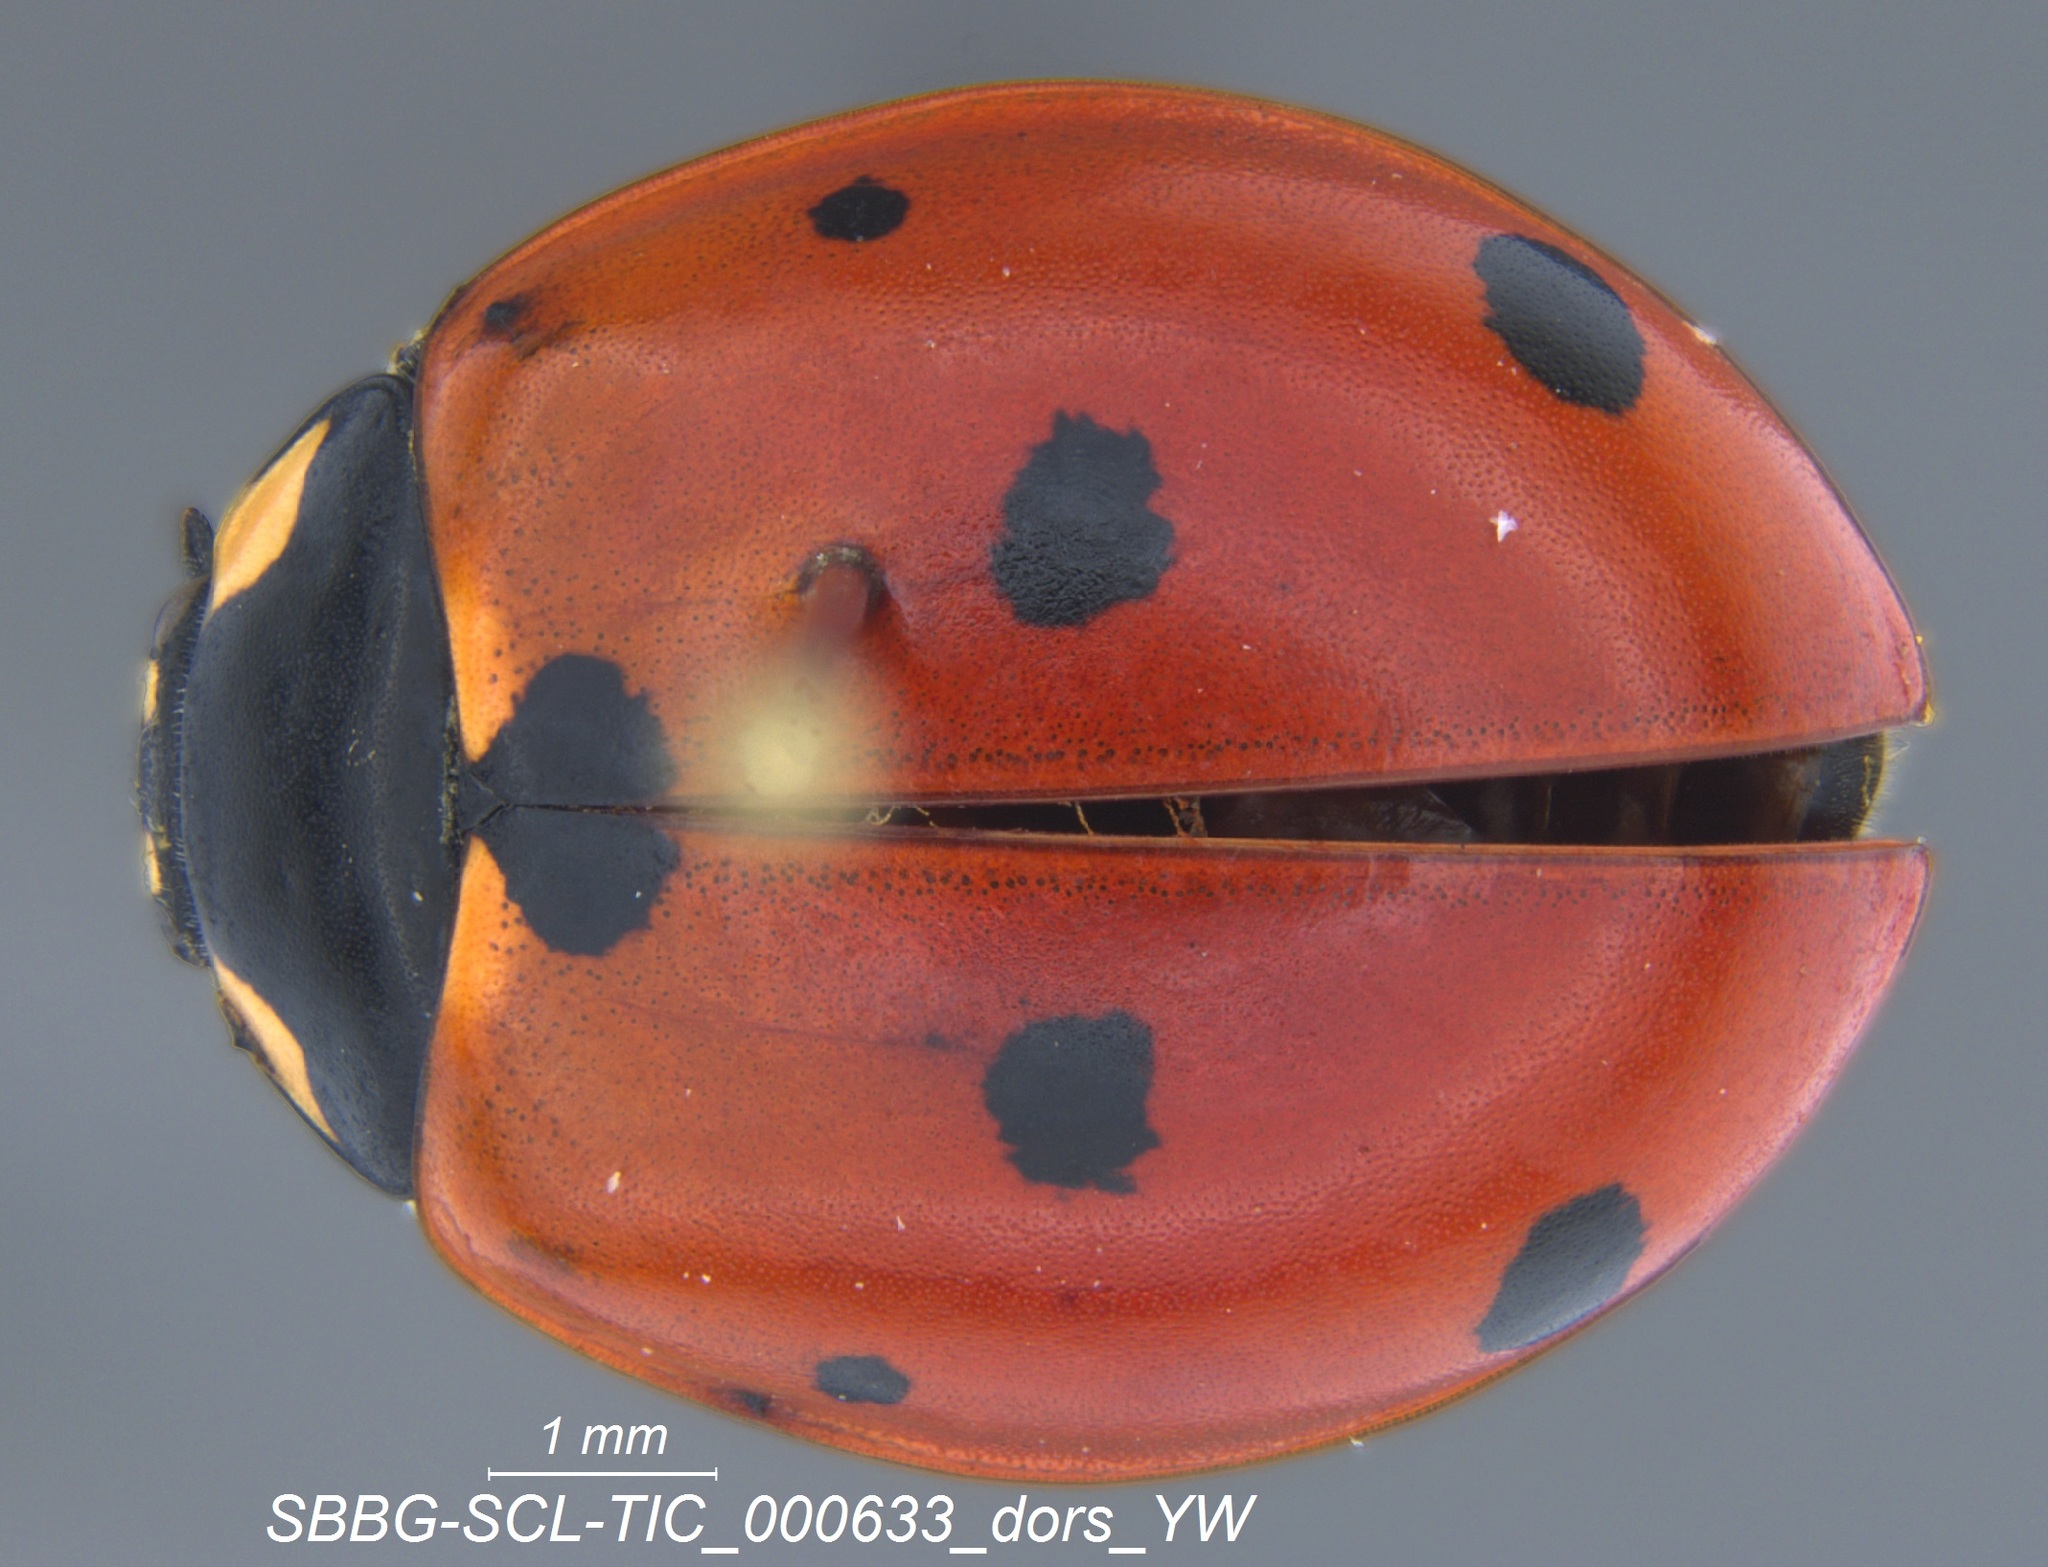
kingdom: Animalia
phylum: Arthropoda
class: Insecta
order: Coleoptera
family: Coccinellidae
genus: Coccinella
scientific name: Coccinella septempunctata
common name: Sevenspotted lady beetle
